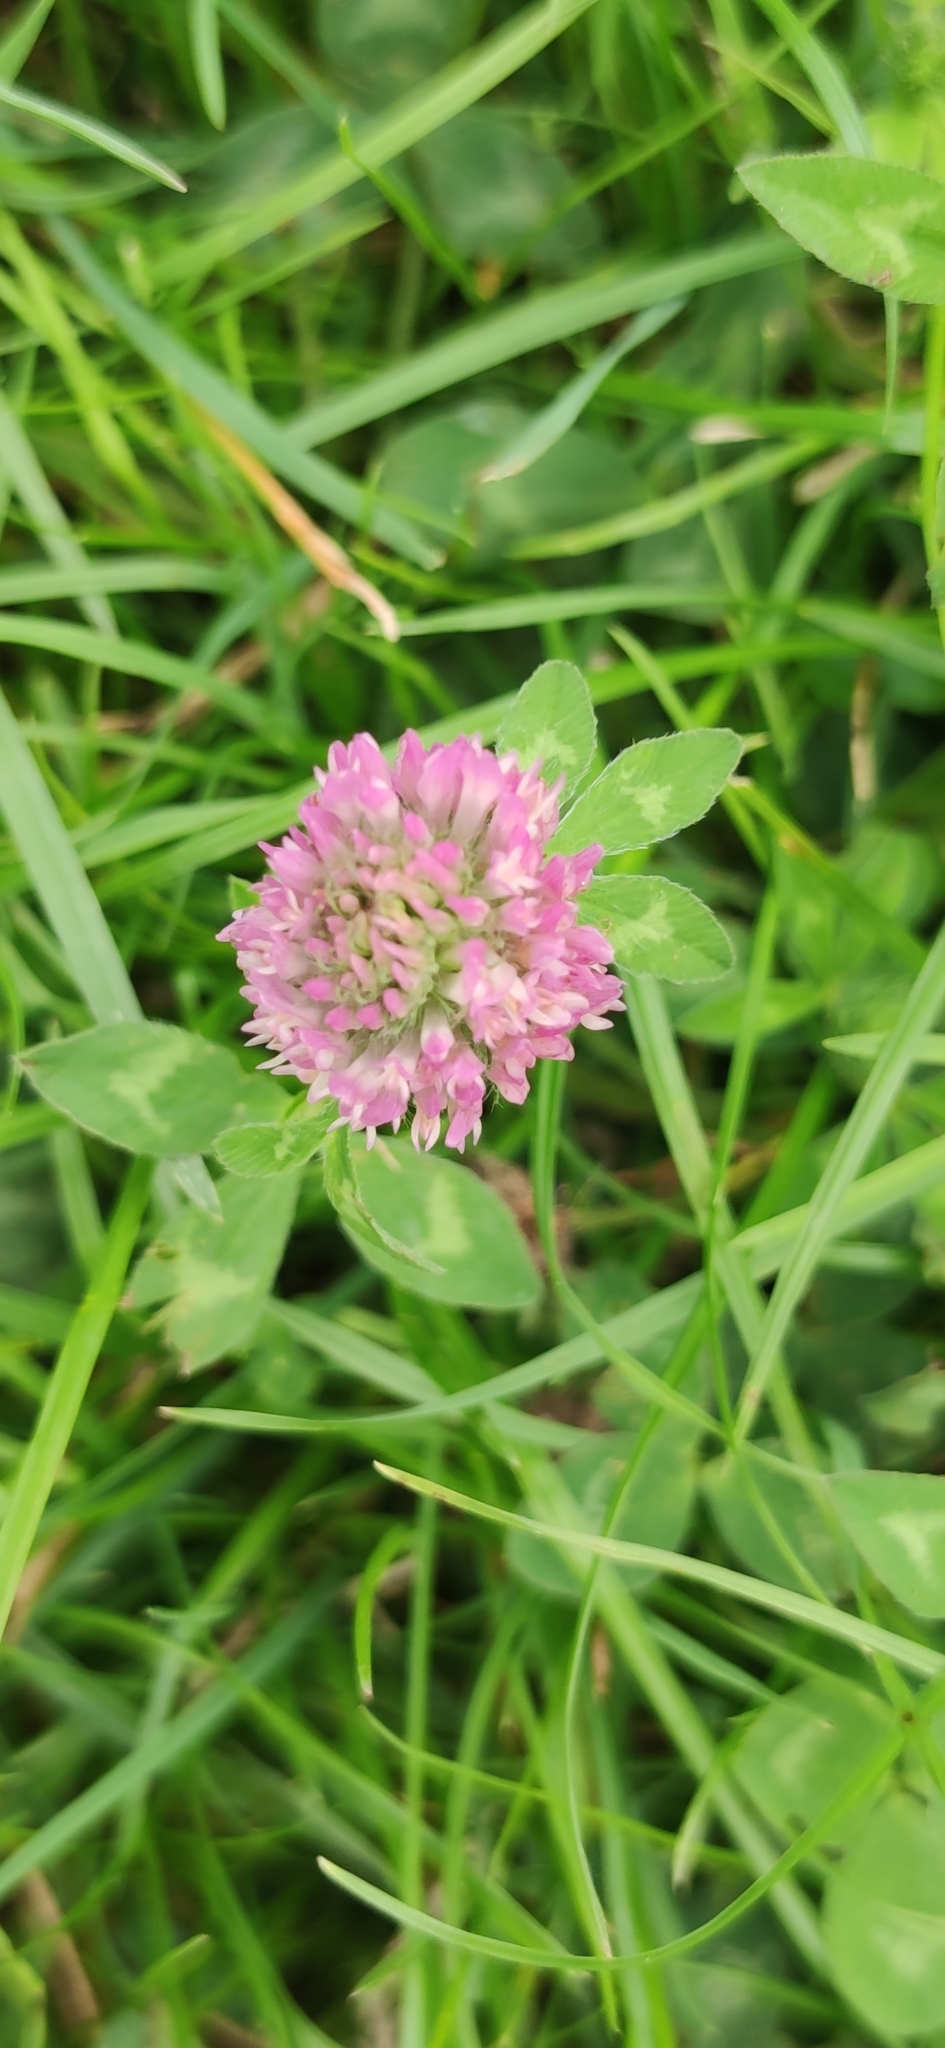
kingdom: Plantae
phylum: Tracheophyta
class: Magnoliopsida
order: Fabales
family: Fabaceae
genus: Trifolium
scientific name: Trifolium pratense
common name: Red clover
